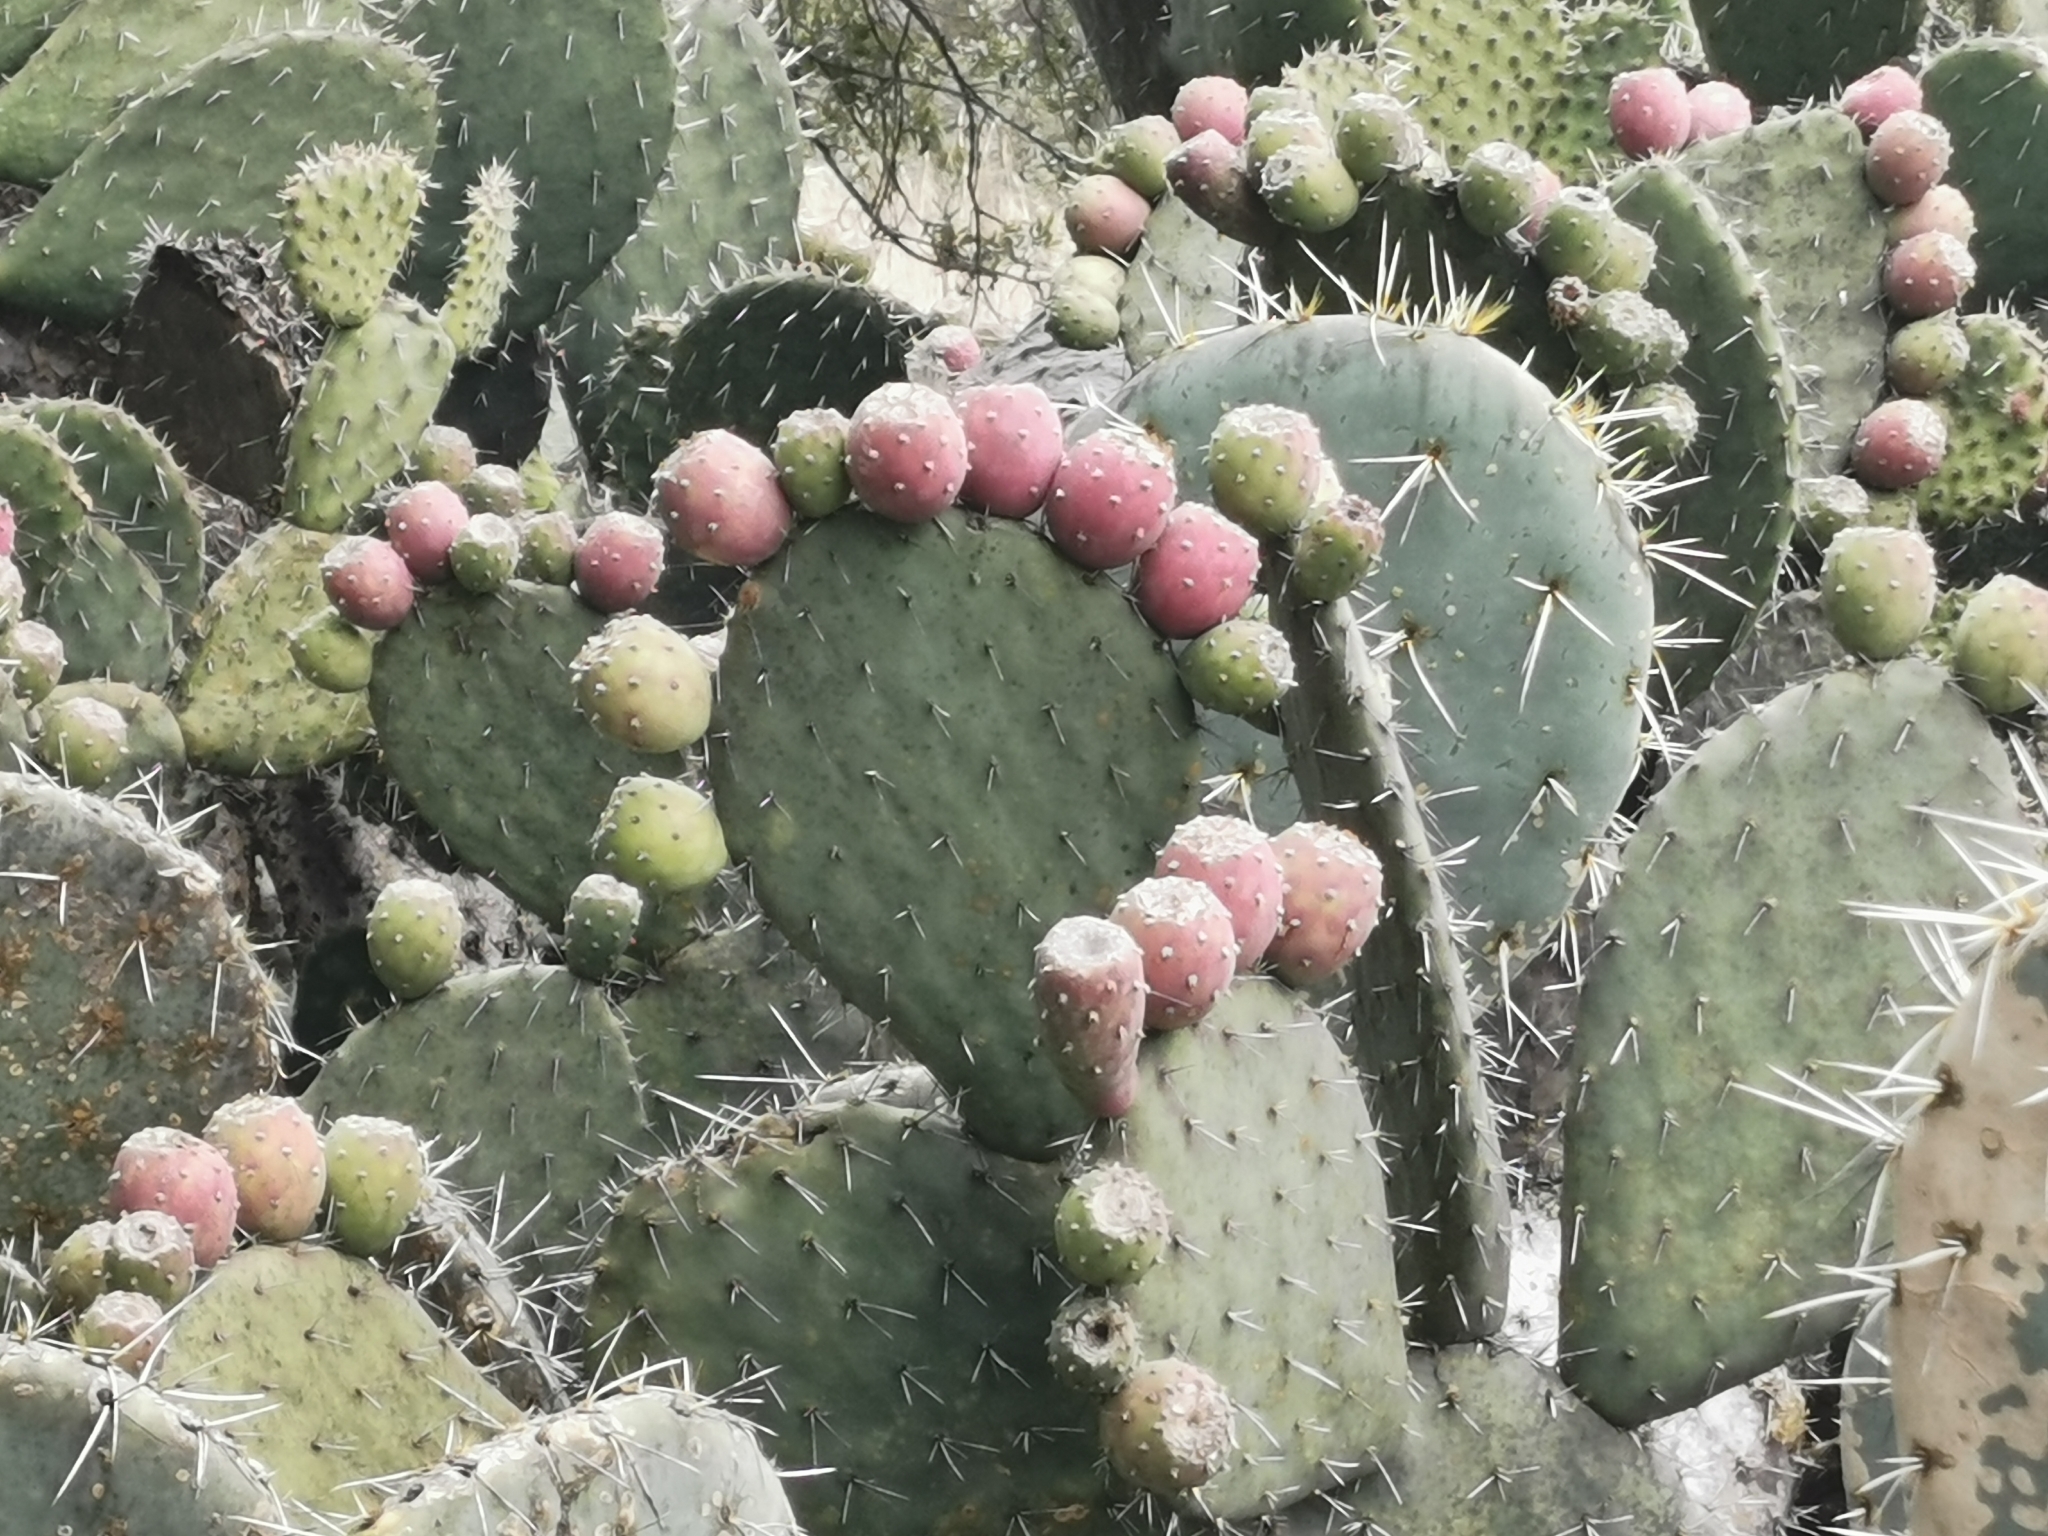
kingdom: Plantae
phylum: Tracheophyta
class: Magnoliopsida
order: Caryophyllales
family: Cactaceae
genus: Opuntia
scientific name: Opuntia robusta
